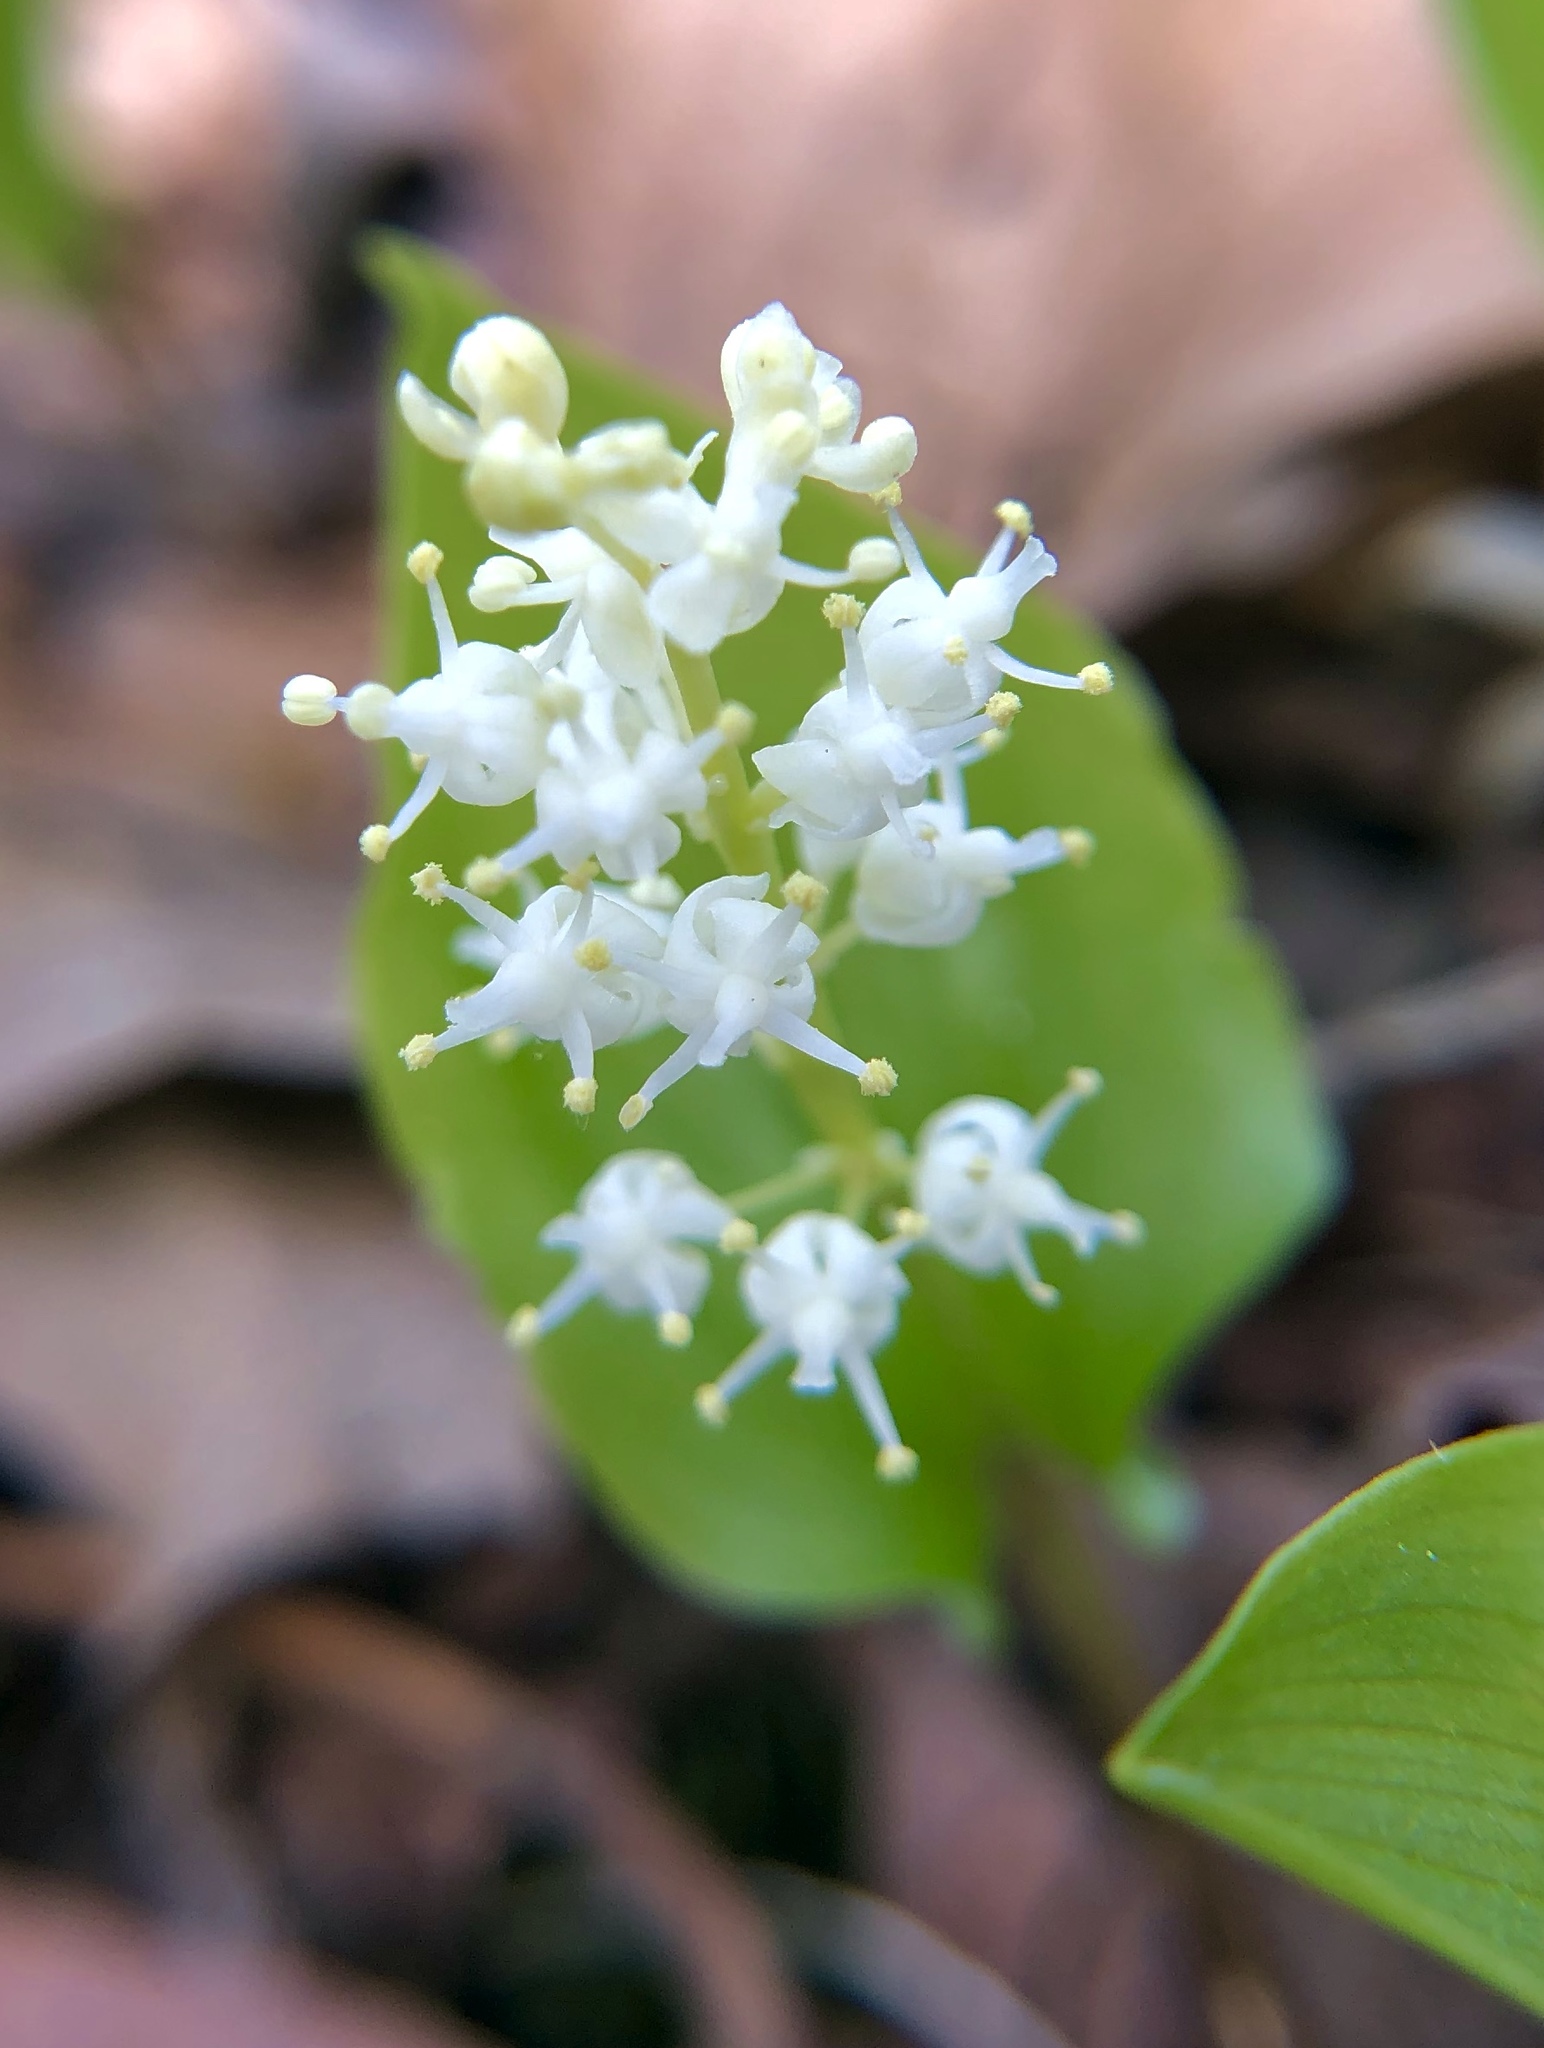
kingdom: Plantae
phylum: Tracheophyta
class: Liliopsida
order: Asparagales
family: Asparagaceae
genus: Maianthemum
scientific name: Maianthemum canadense
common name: False lily-of-the-valley
